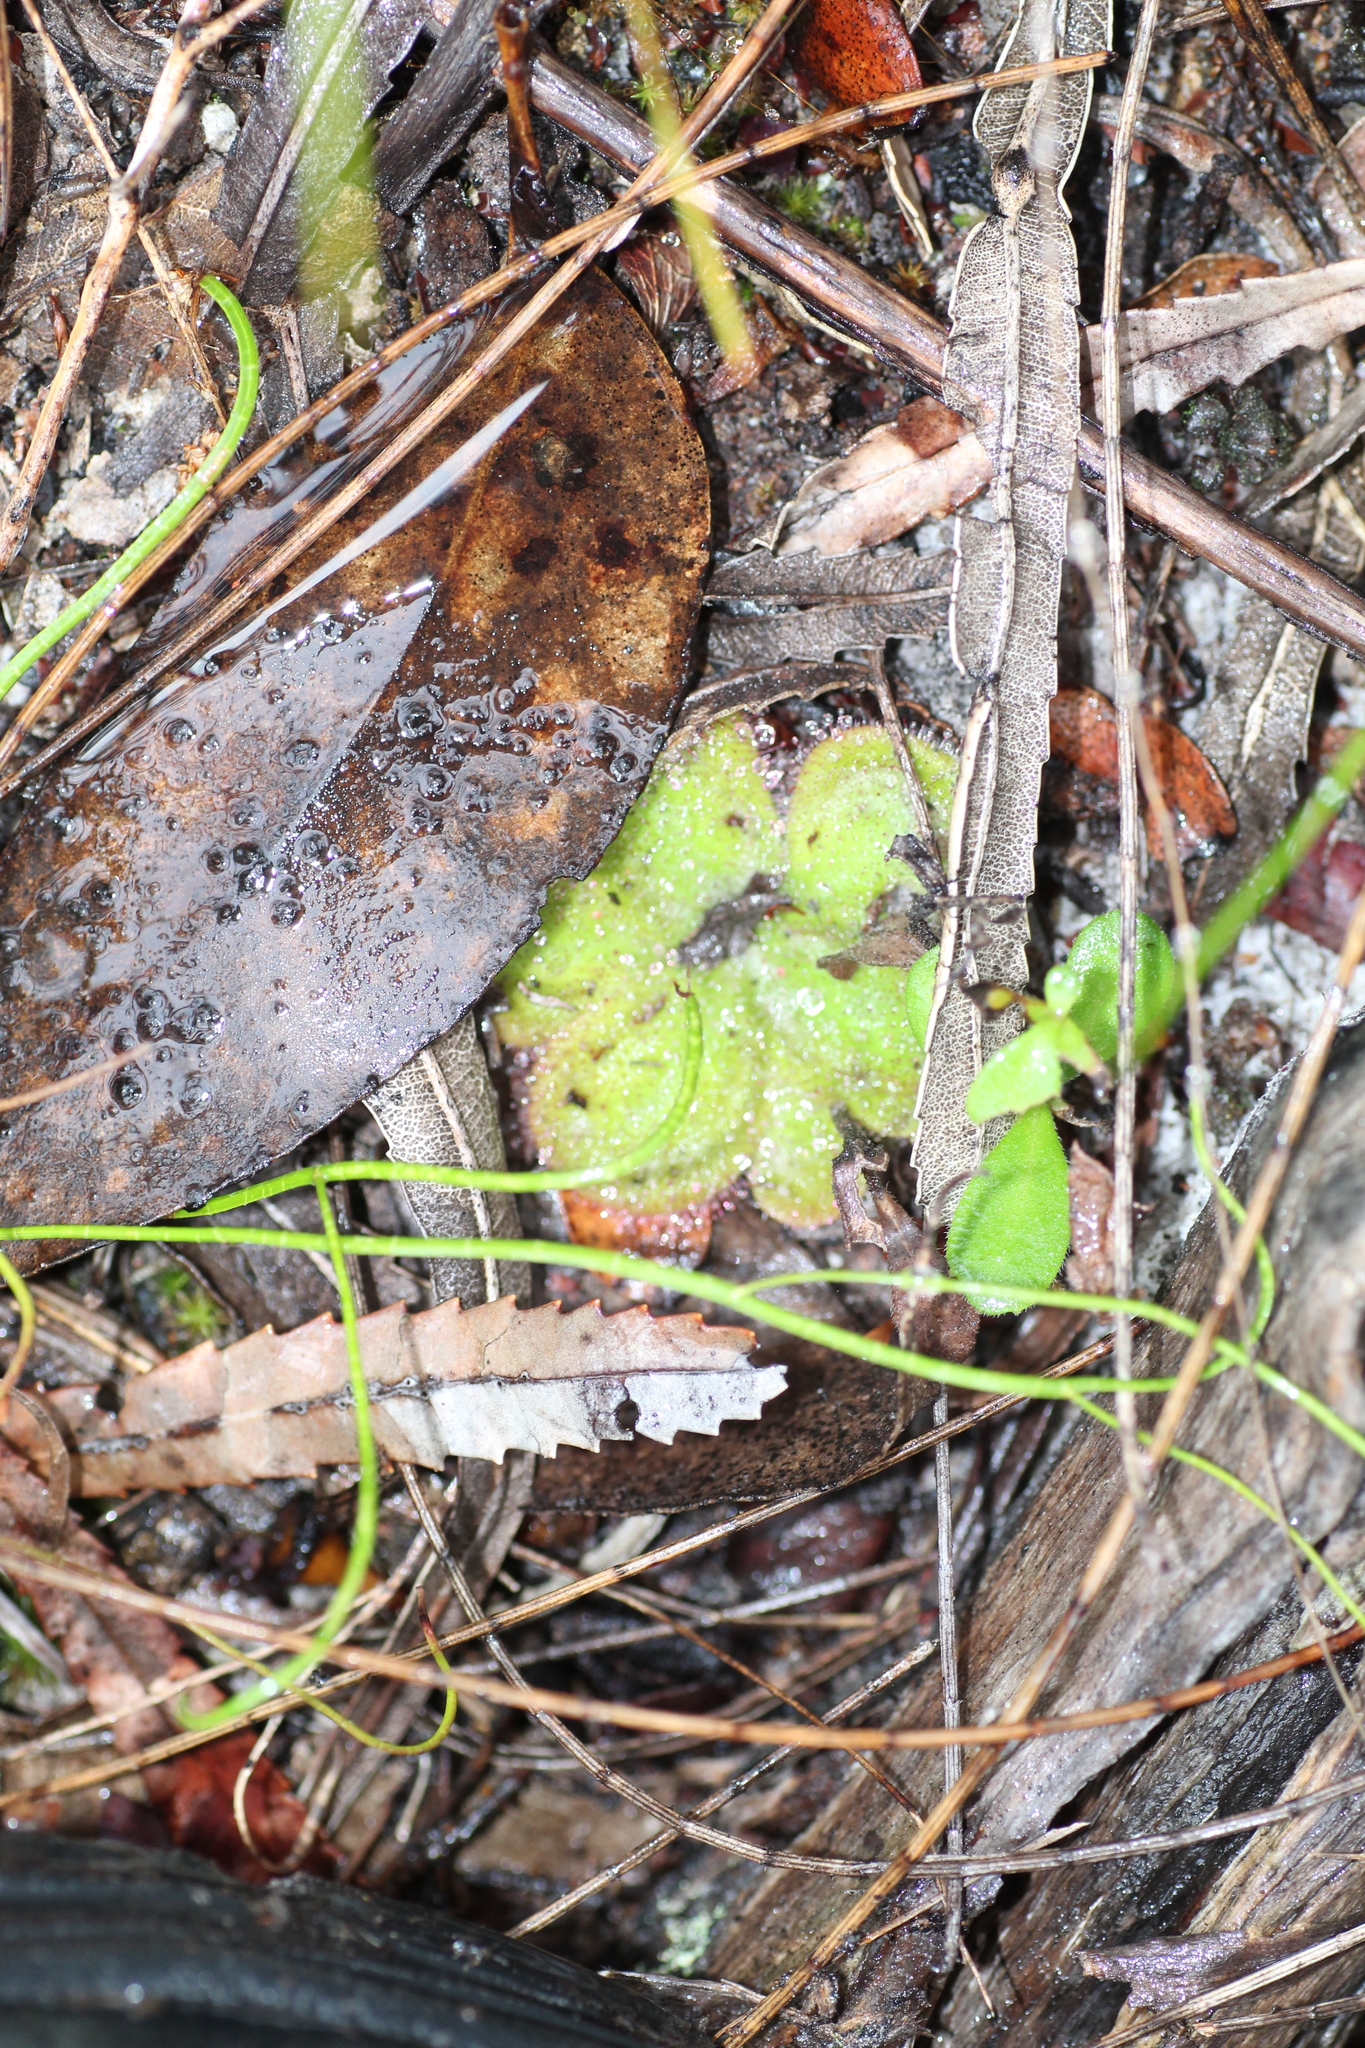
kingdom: Plantae
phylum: Tracheophyta
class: Magnoliopsida
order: Caryophyllales
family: Droseraceae
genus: Drosera
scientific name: Drosera erythrorhiza
